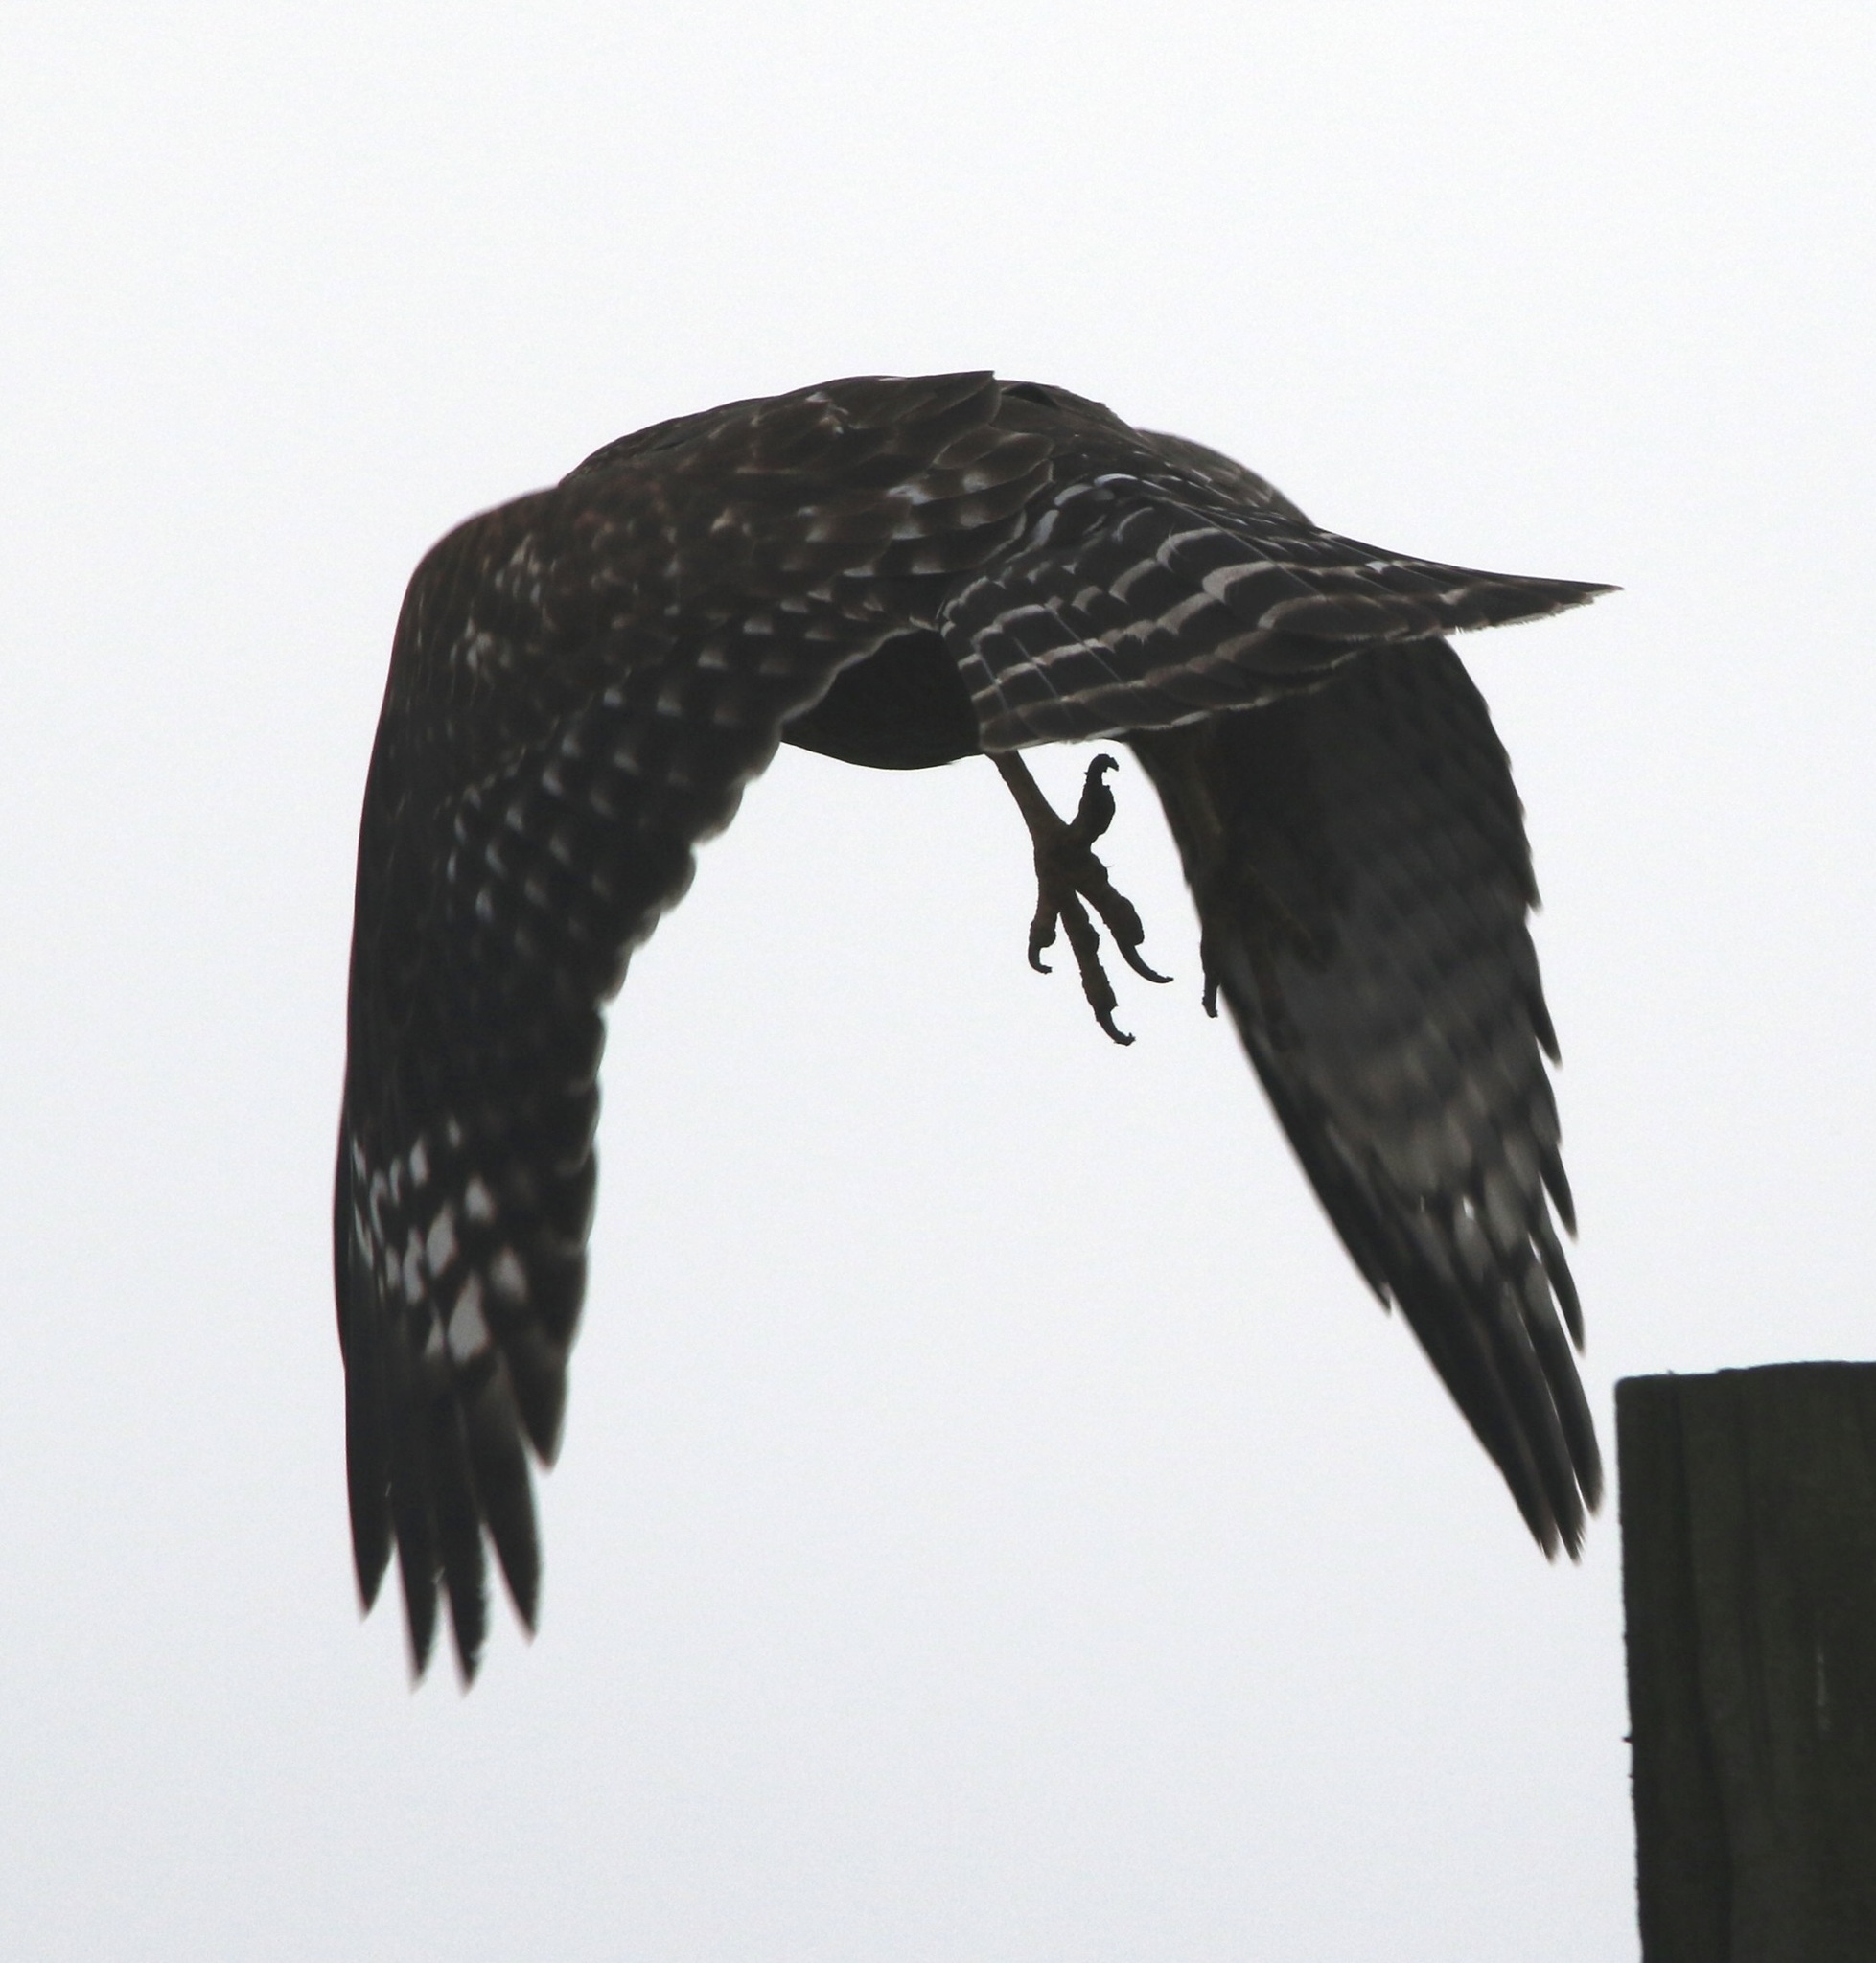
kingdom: Animalia
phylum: Chordata
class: Aves
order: Accipitriformes
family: Accipitridae
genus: Buteo
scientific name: Buteo lineatus
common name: Red-shouldered hawk
